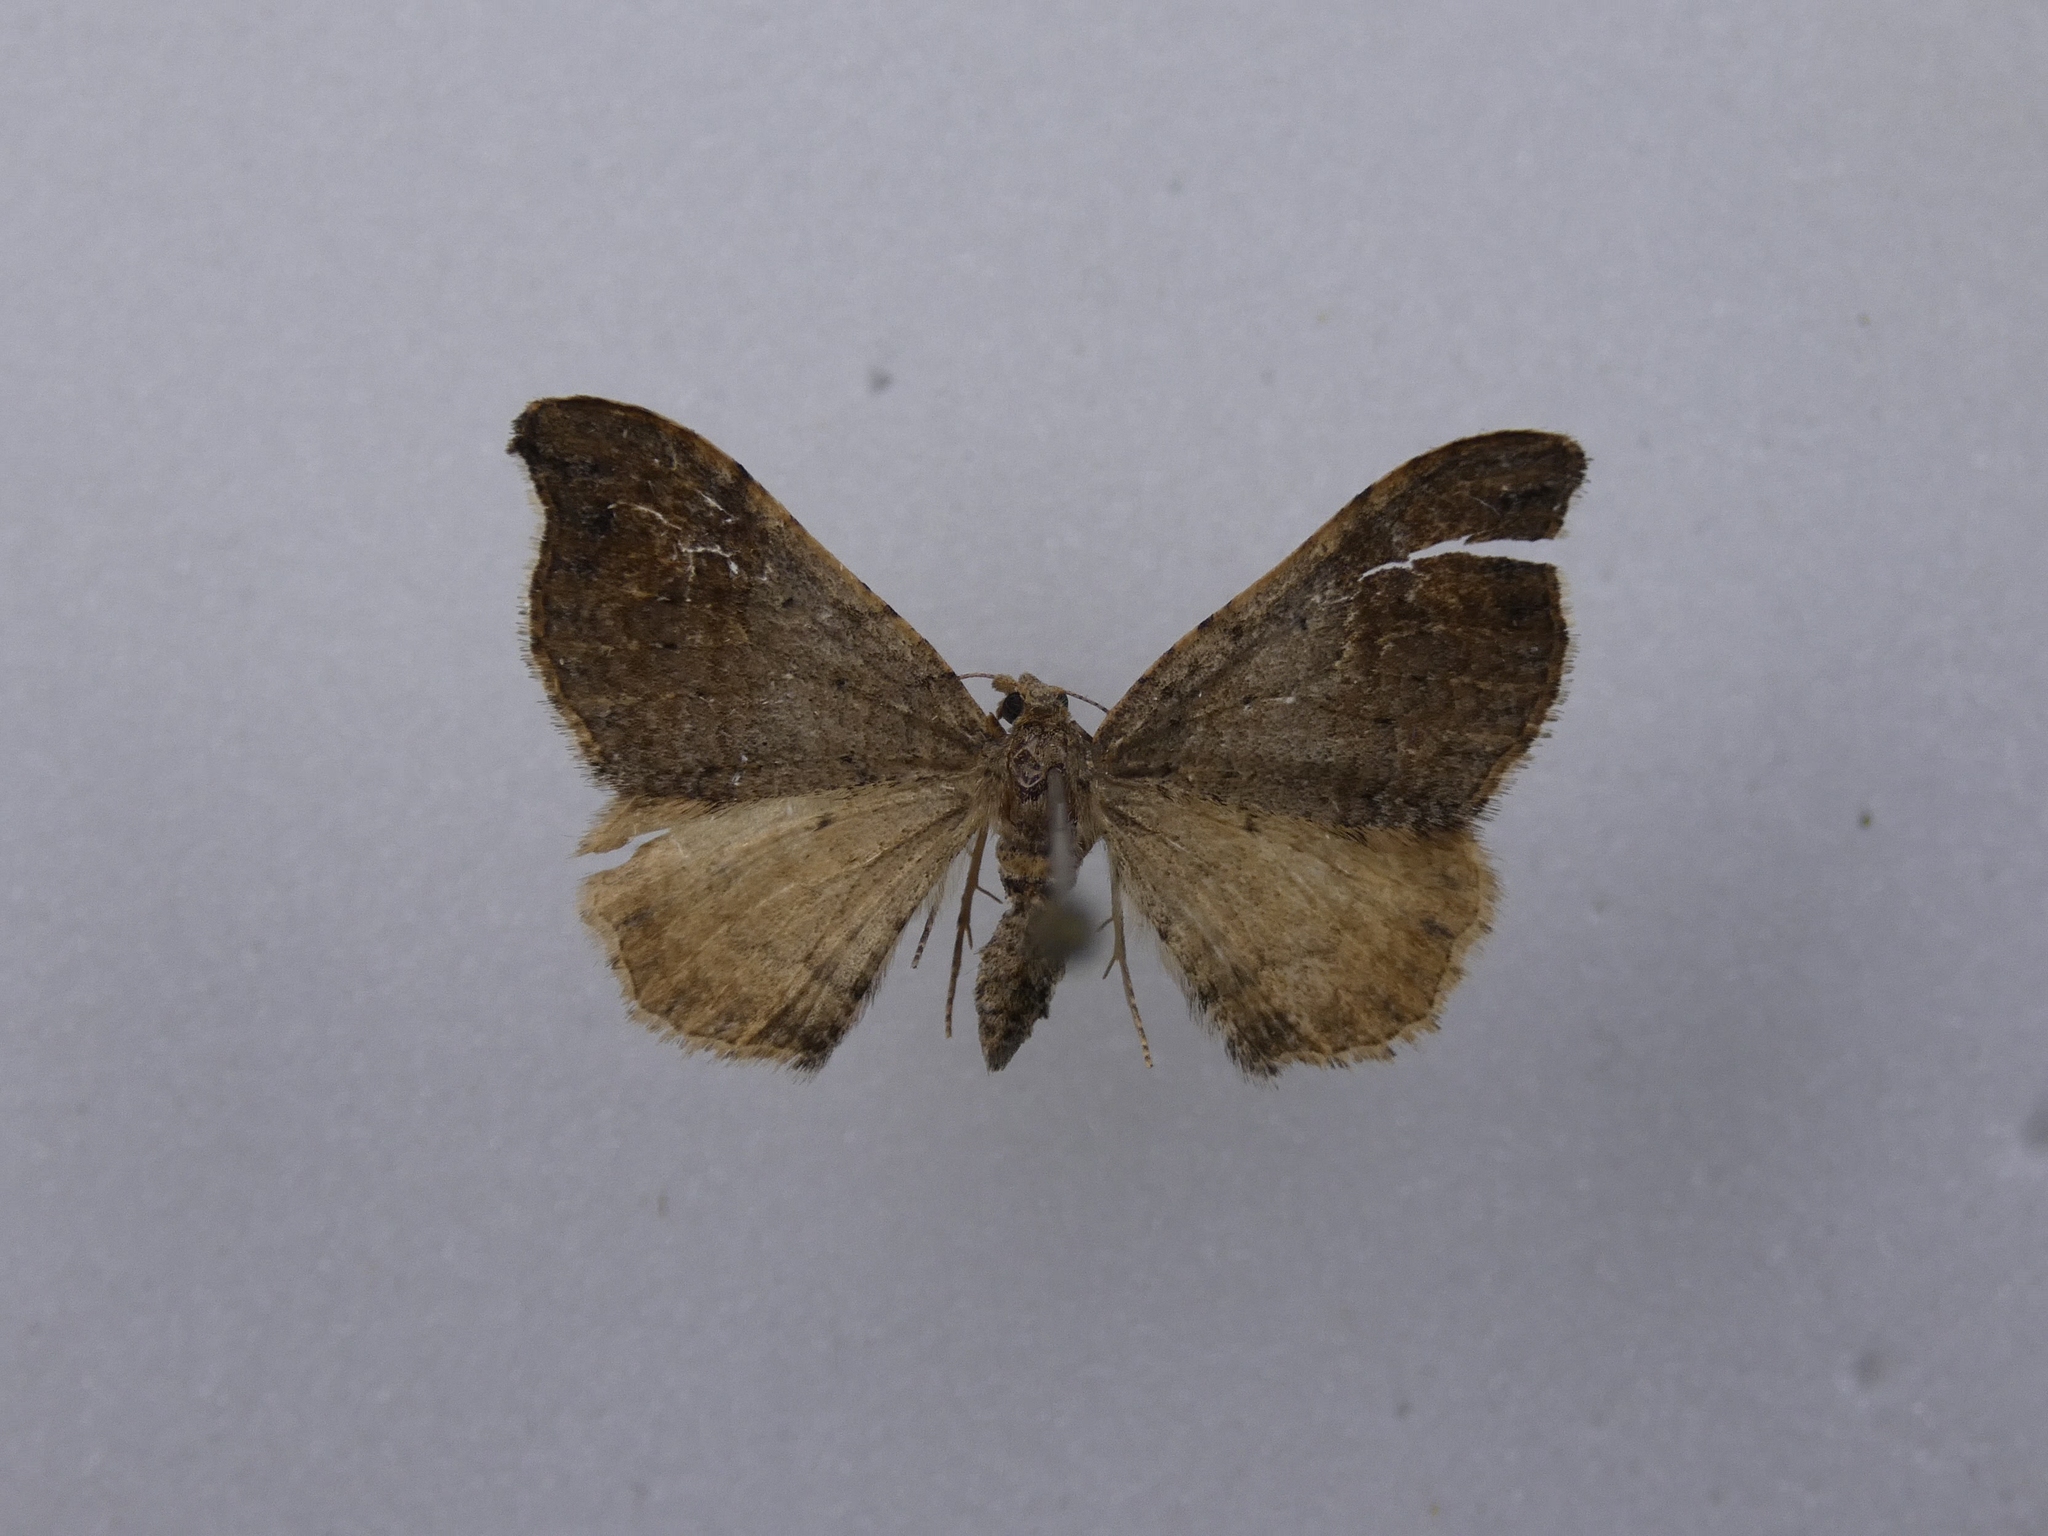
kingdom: Animalia
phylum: Arthropoda
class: Insecta
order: Lepidoptera
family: Geometridae
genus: Homodotis
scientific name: Homodotis megaspilata
